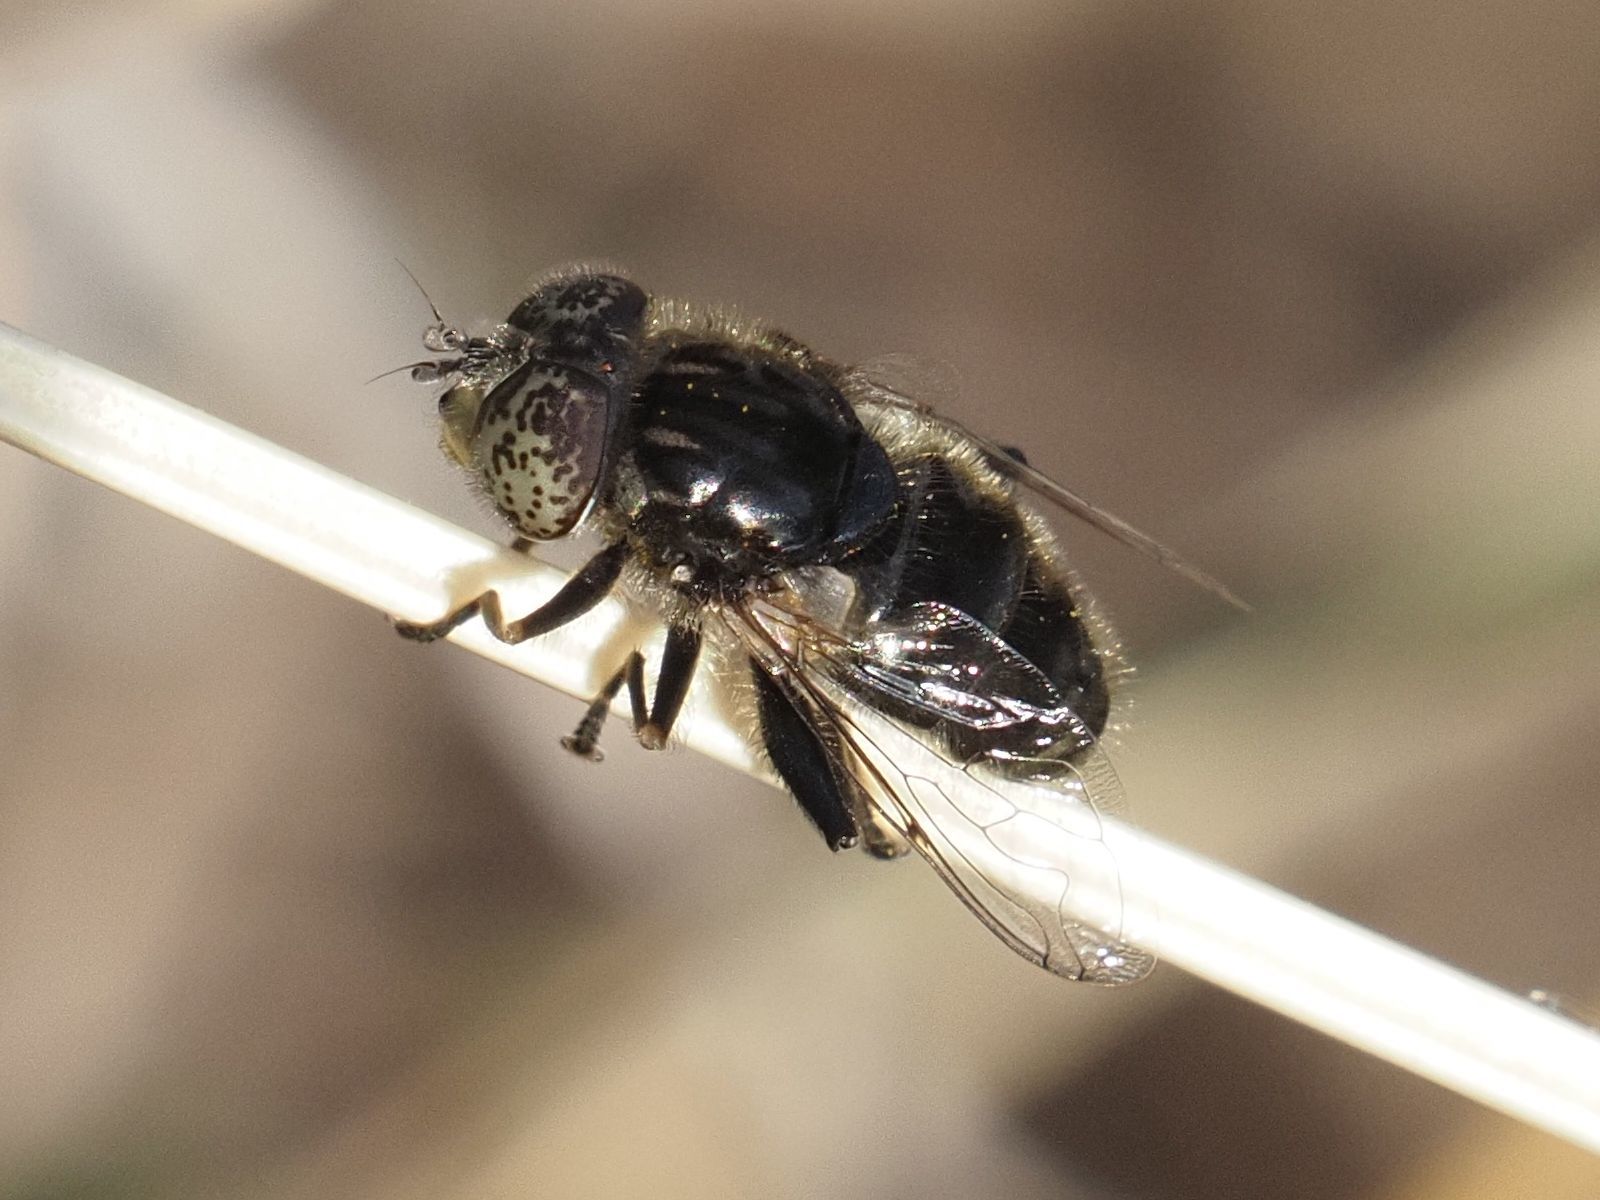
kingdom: Animalia
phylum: Arthropoda
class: Insecta
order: Diptera
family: Syrphidae
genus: Eristalinus
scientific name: Eristalinus sepulchralis
